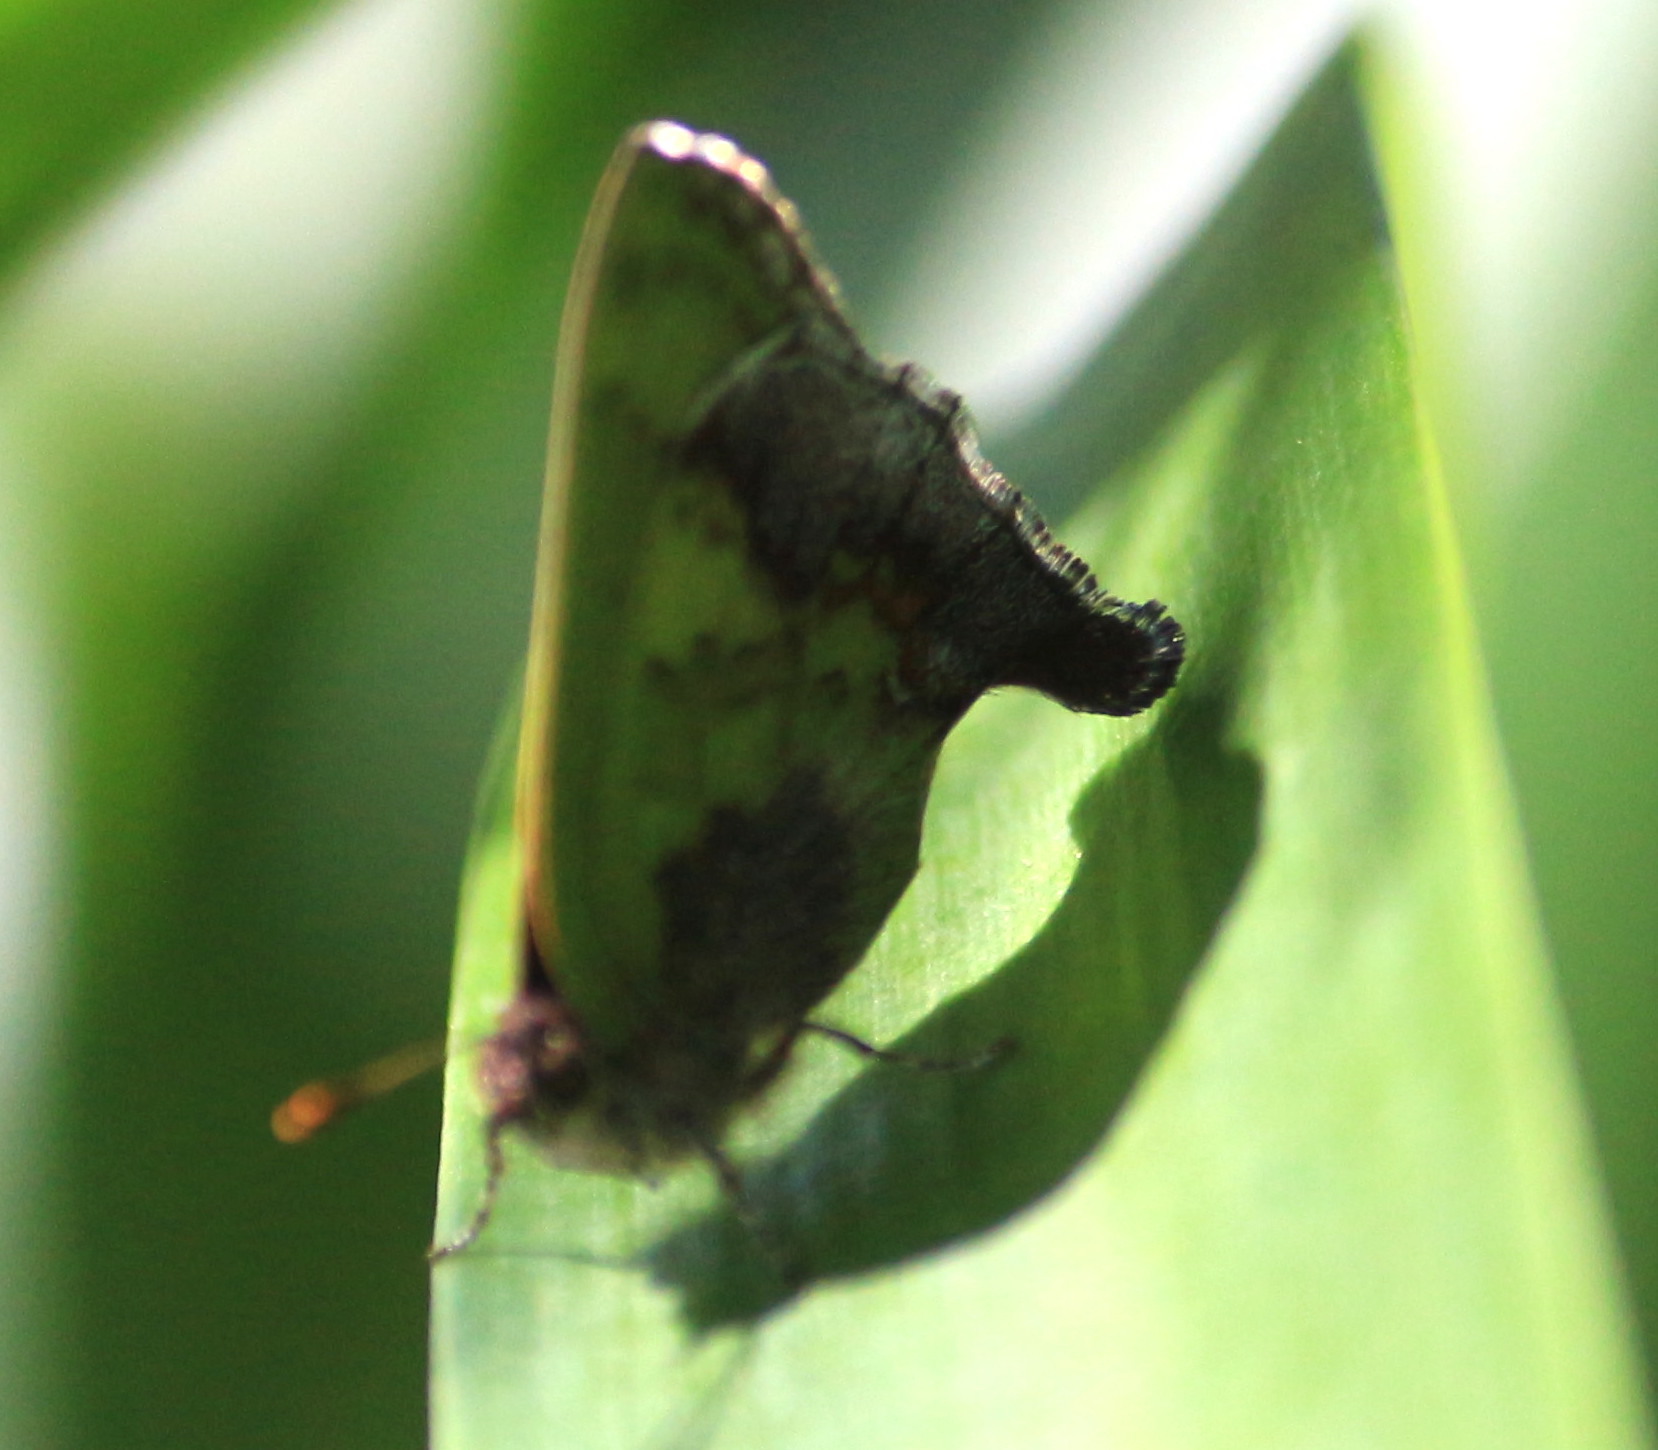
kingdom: Animalia
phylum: Arthropoda
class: Insecta
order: Lepidoptera
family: Lycaenidae
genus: Cyanophrys
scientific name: Cyanophrys agricolor
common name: Stained greenstreak
